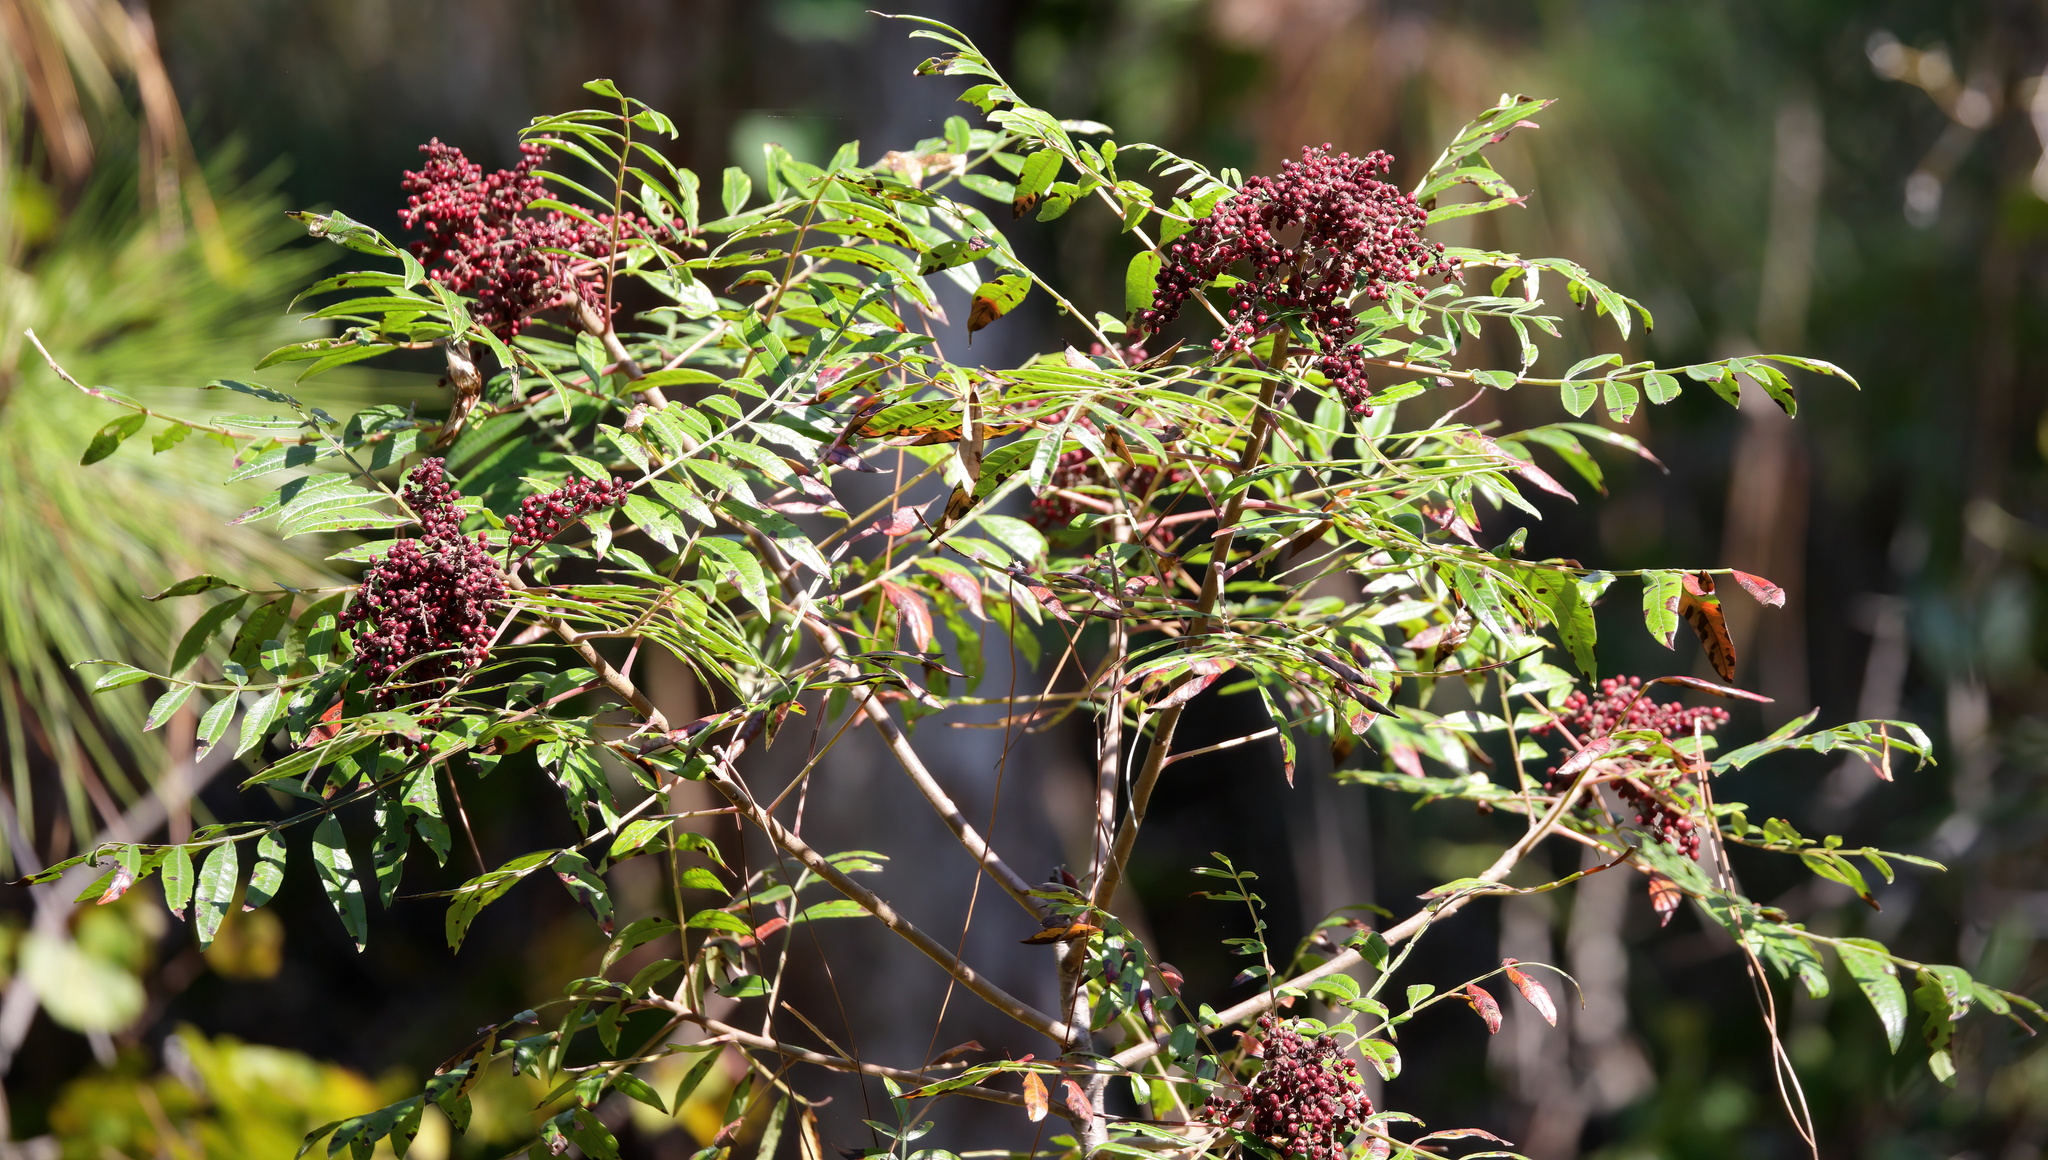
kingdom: Plantae
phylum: Tracheophyta
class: Magnoliopsida
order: Sapindales
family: Anacardiaceae
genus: Rhus
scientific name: Rhus copallina
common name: Shining sumac
